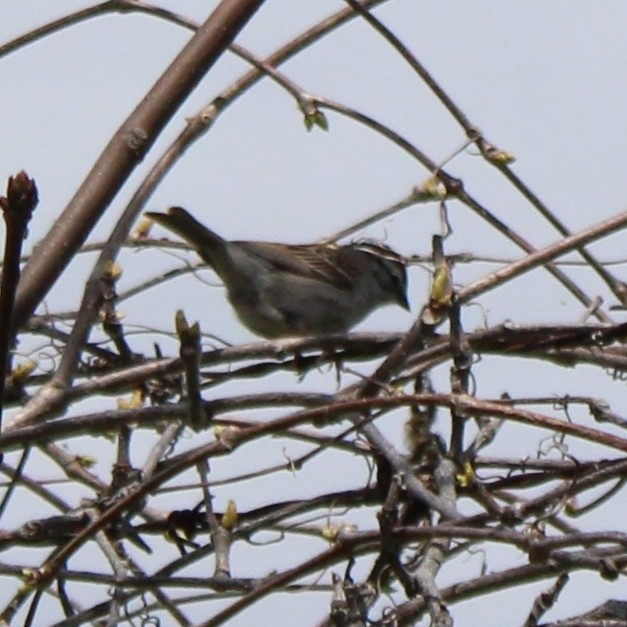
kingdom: Animalia
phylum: Chordata
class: Aves
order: Passeriformes
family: Passerellidae
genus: Spizella
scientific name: Spizella passerina
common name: Chipping sparrow
